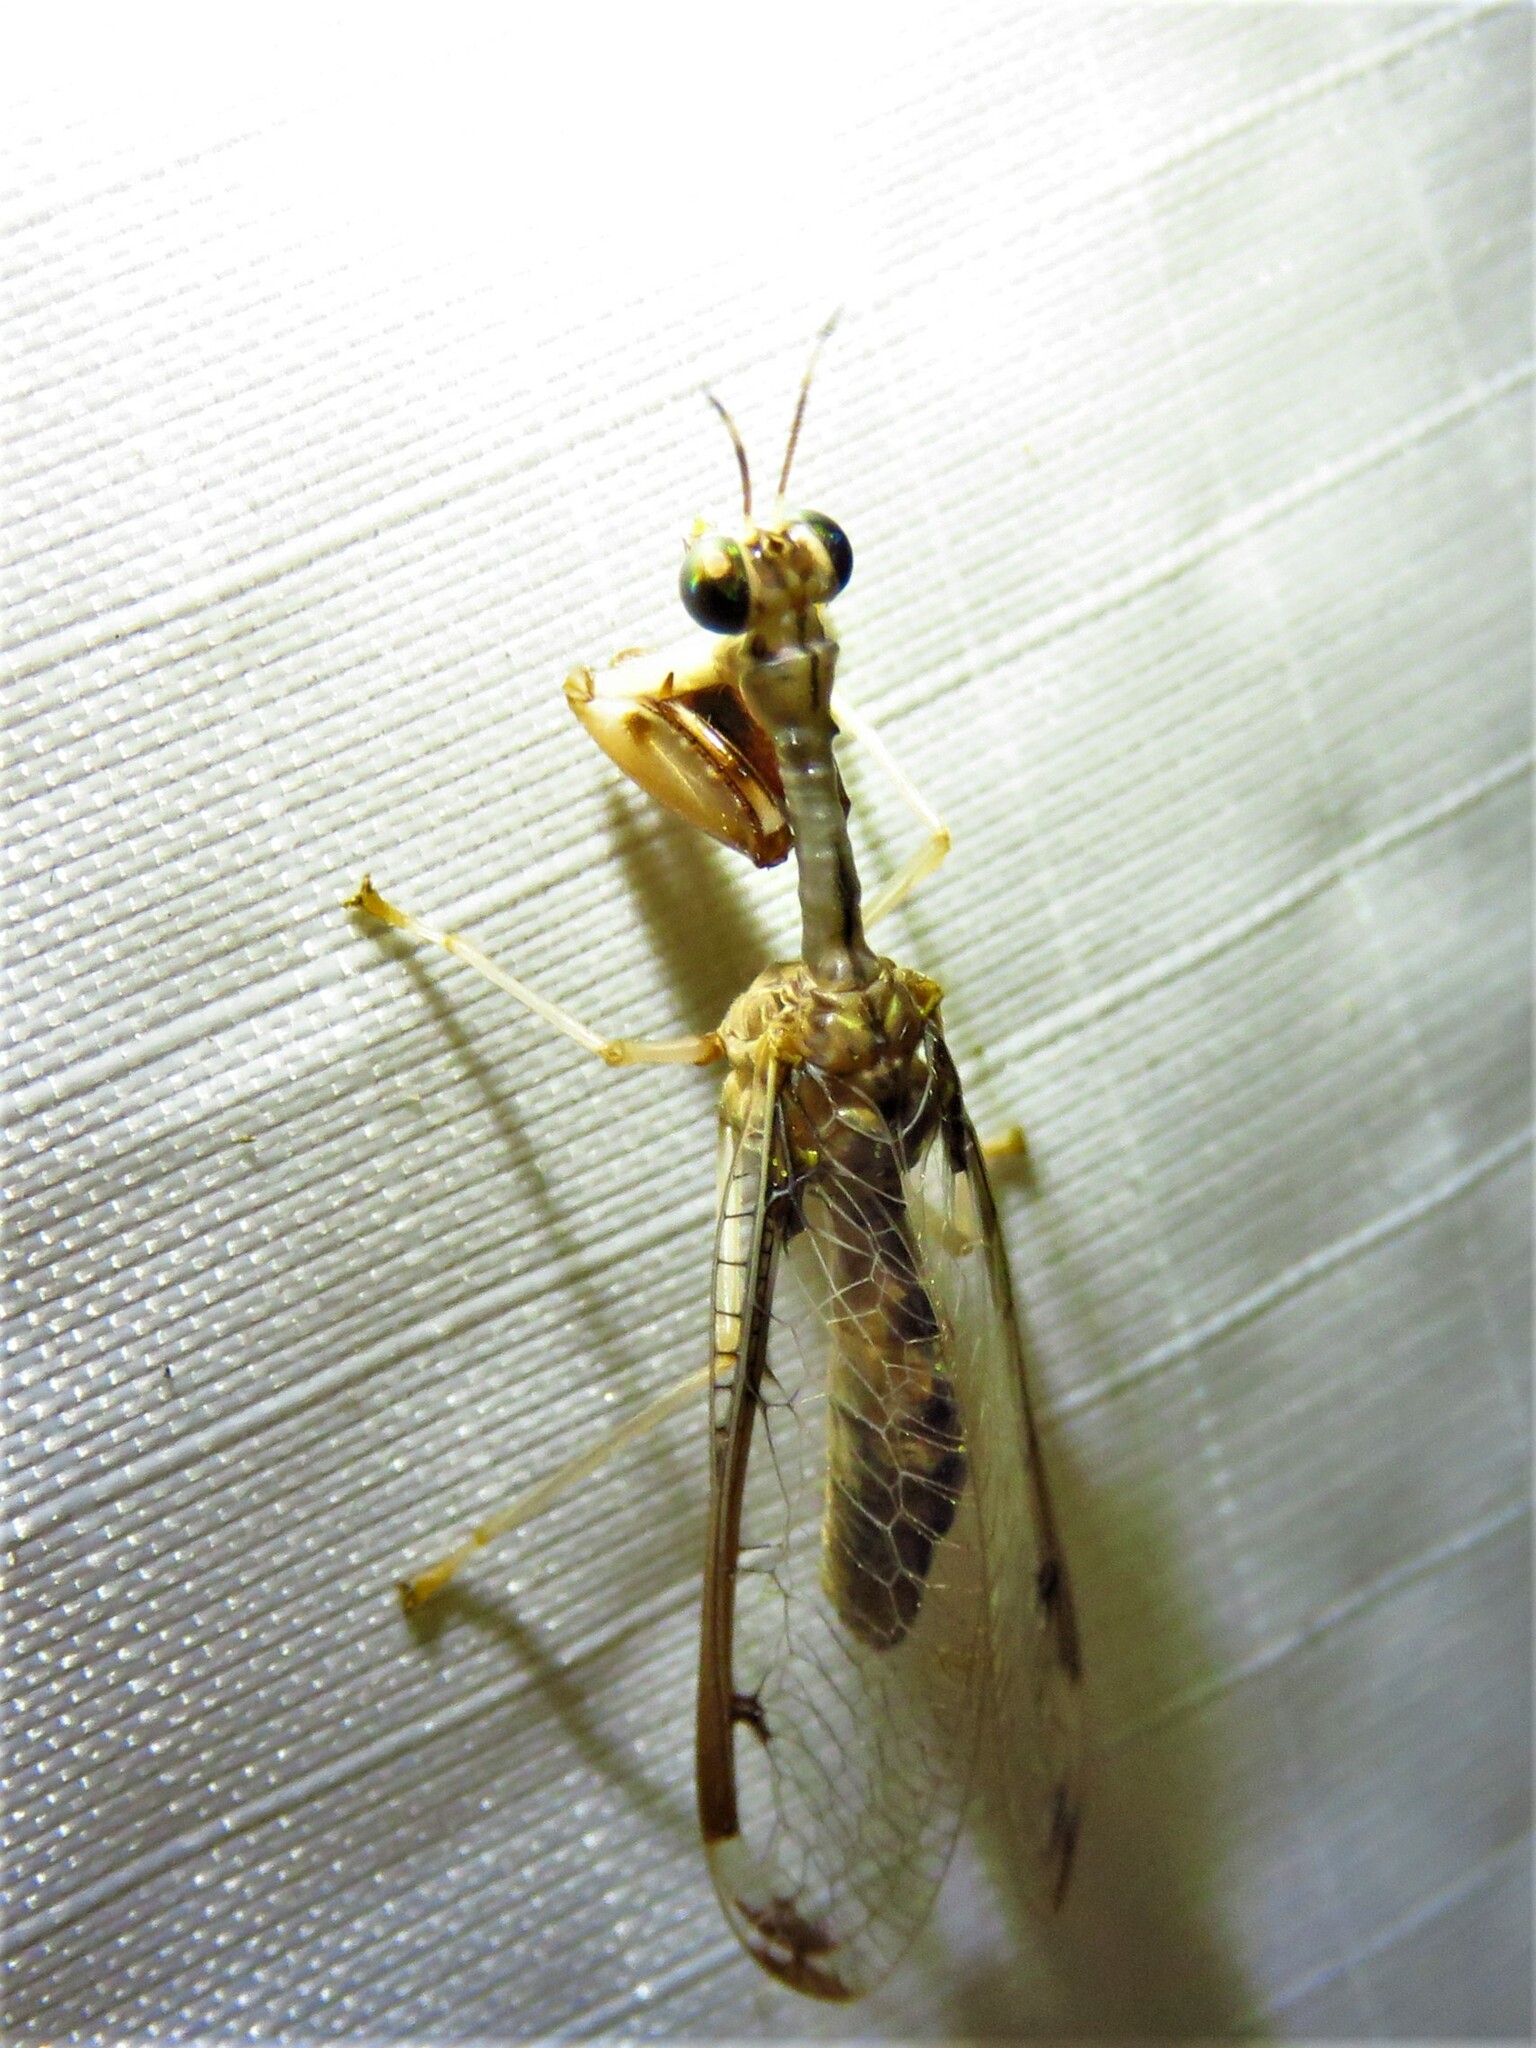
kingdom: Animalia
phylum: Arthropoda
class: Insecta
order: Neuroptera
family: Mantispidae
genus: Dicromantispa
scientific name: Dicromantispa interrupta
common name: Four-spotted mantidfly
